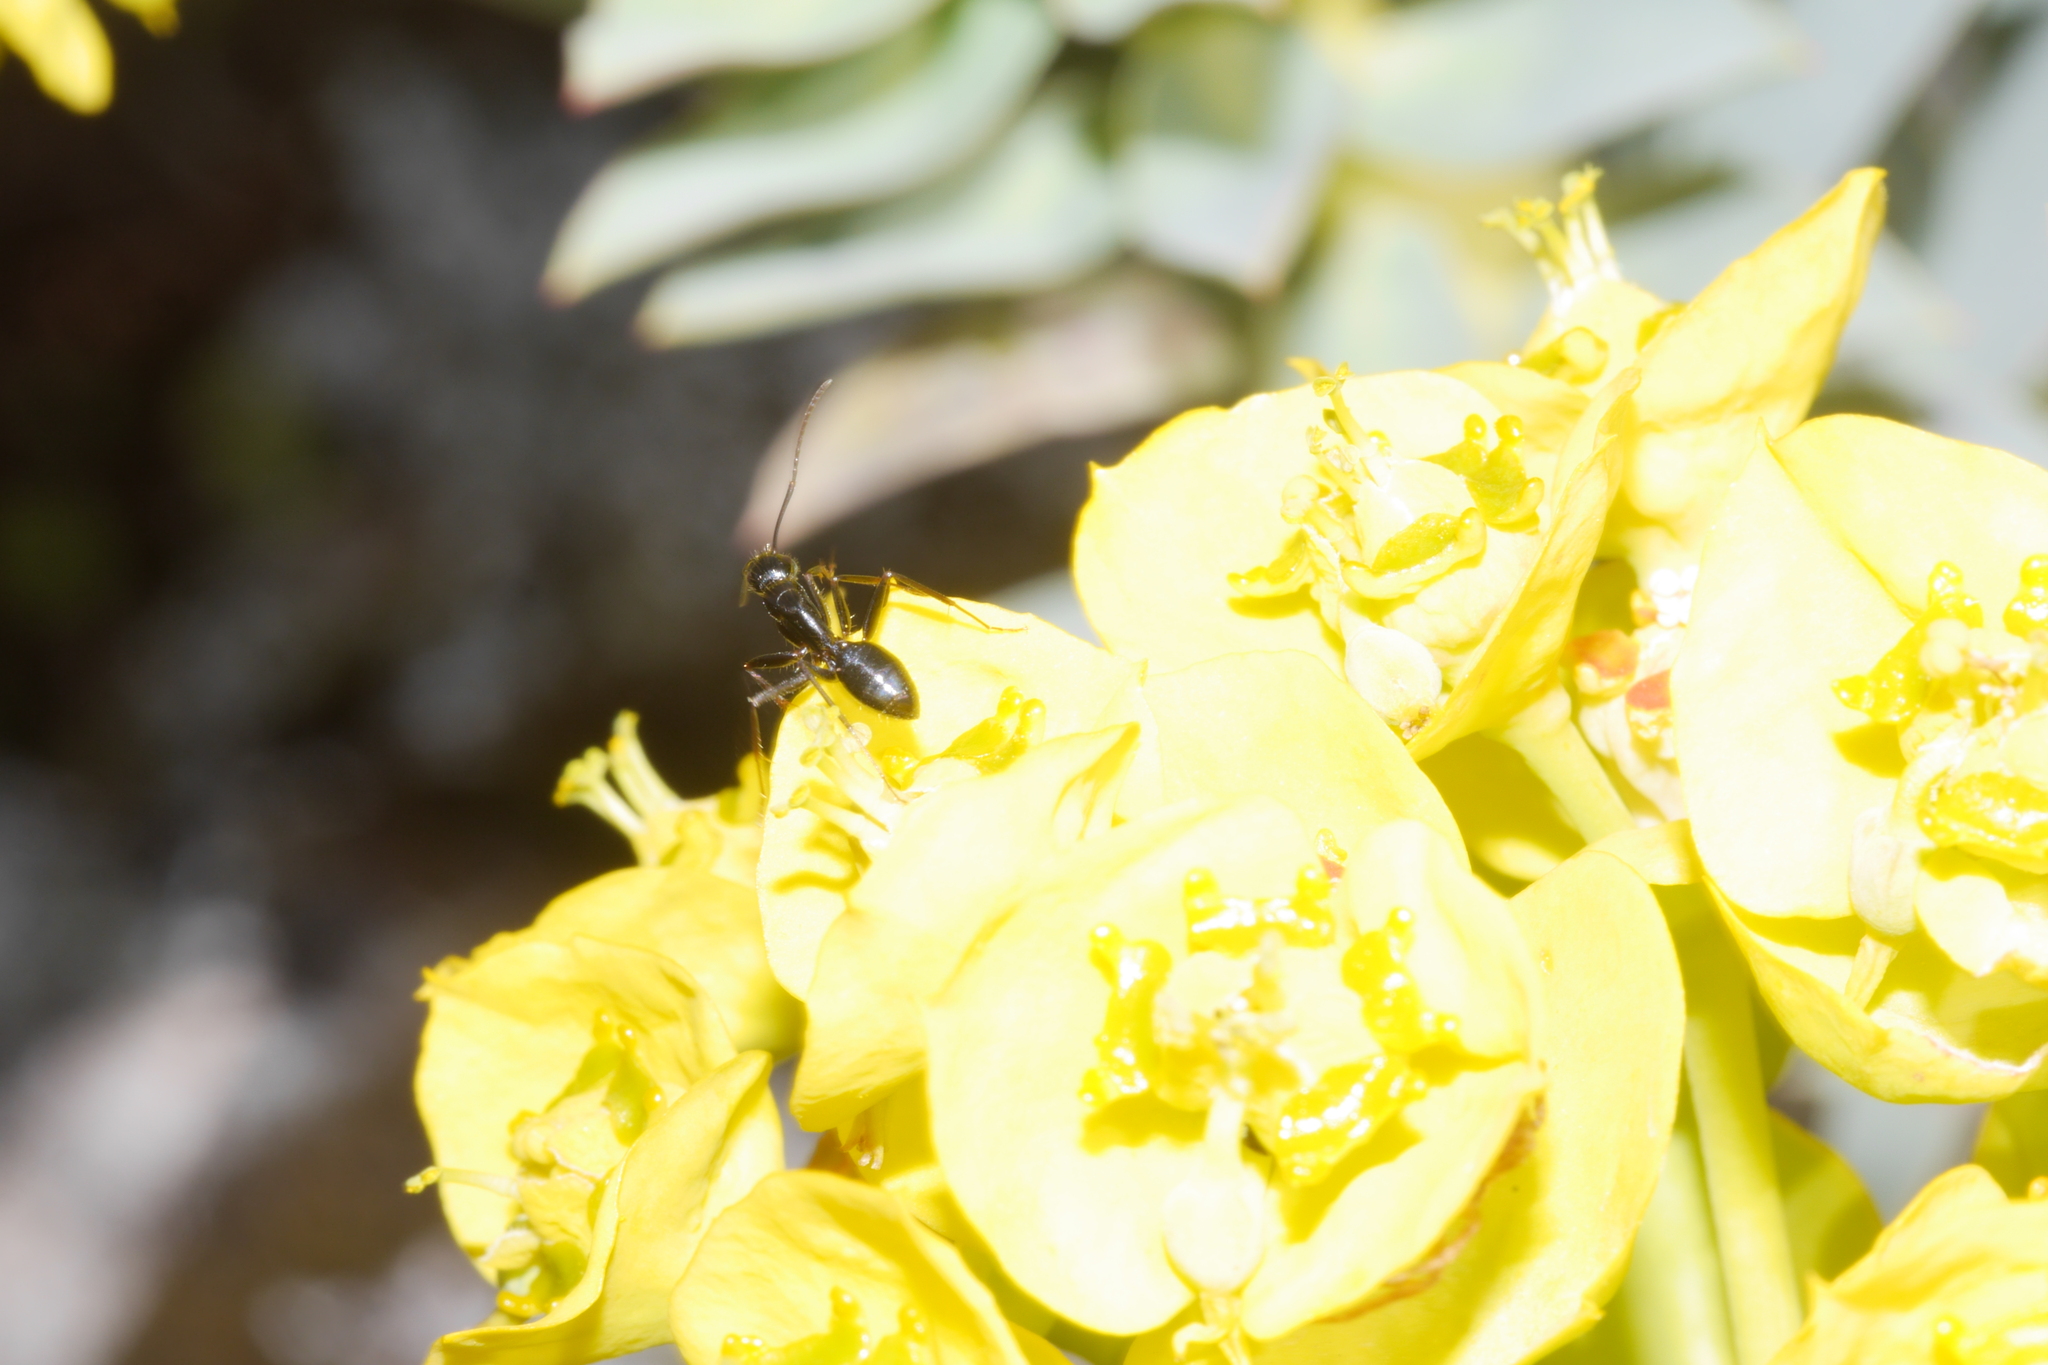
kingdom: Animalia
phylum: Arthropoda
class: Insecta
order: Hymenoptera
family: Formicidae
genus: Camponotus
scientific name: Camponotus aethiops
